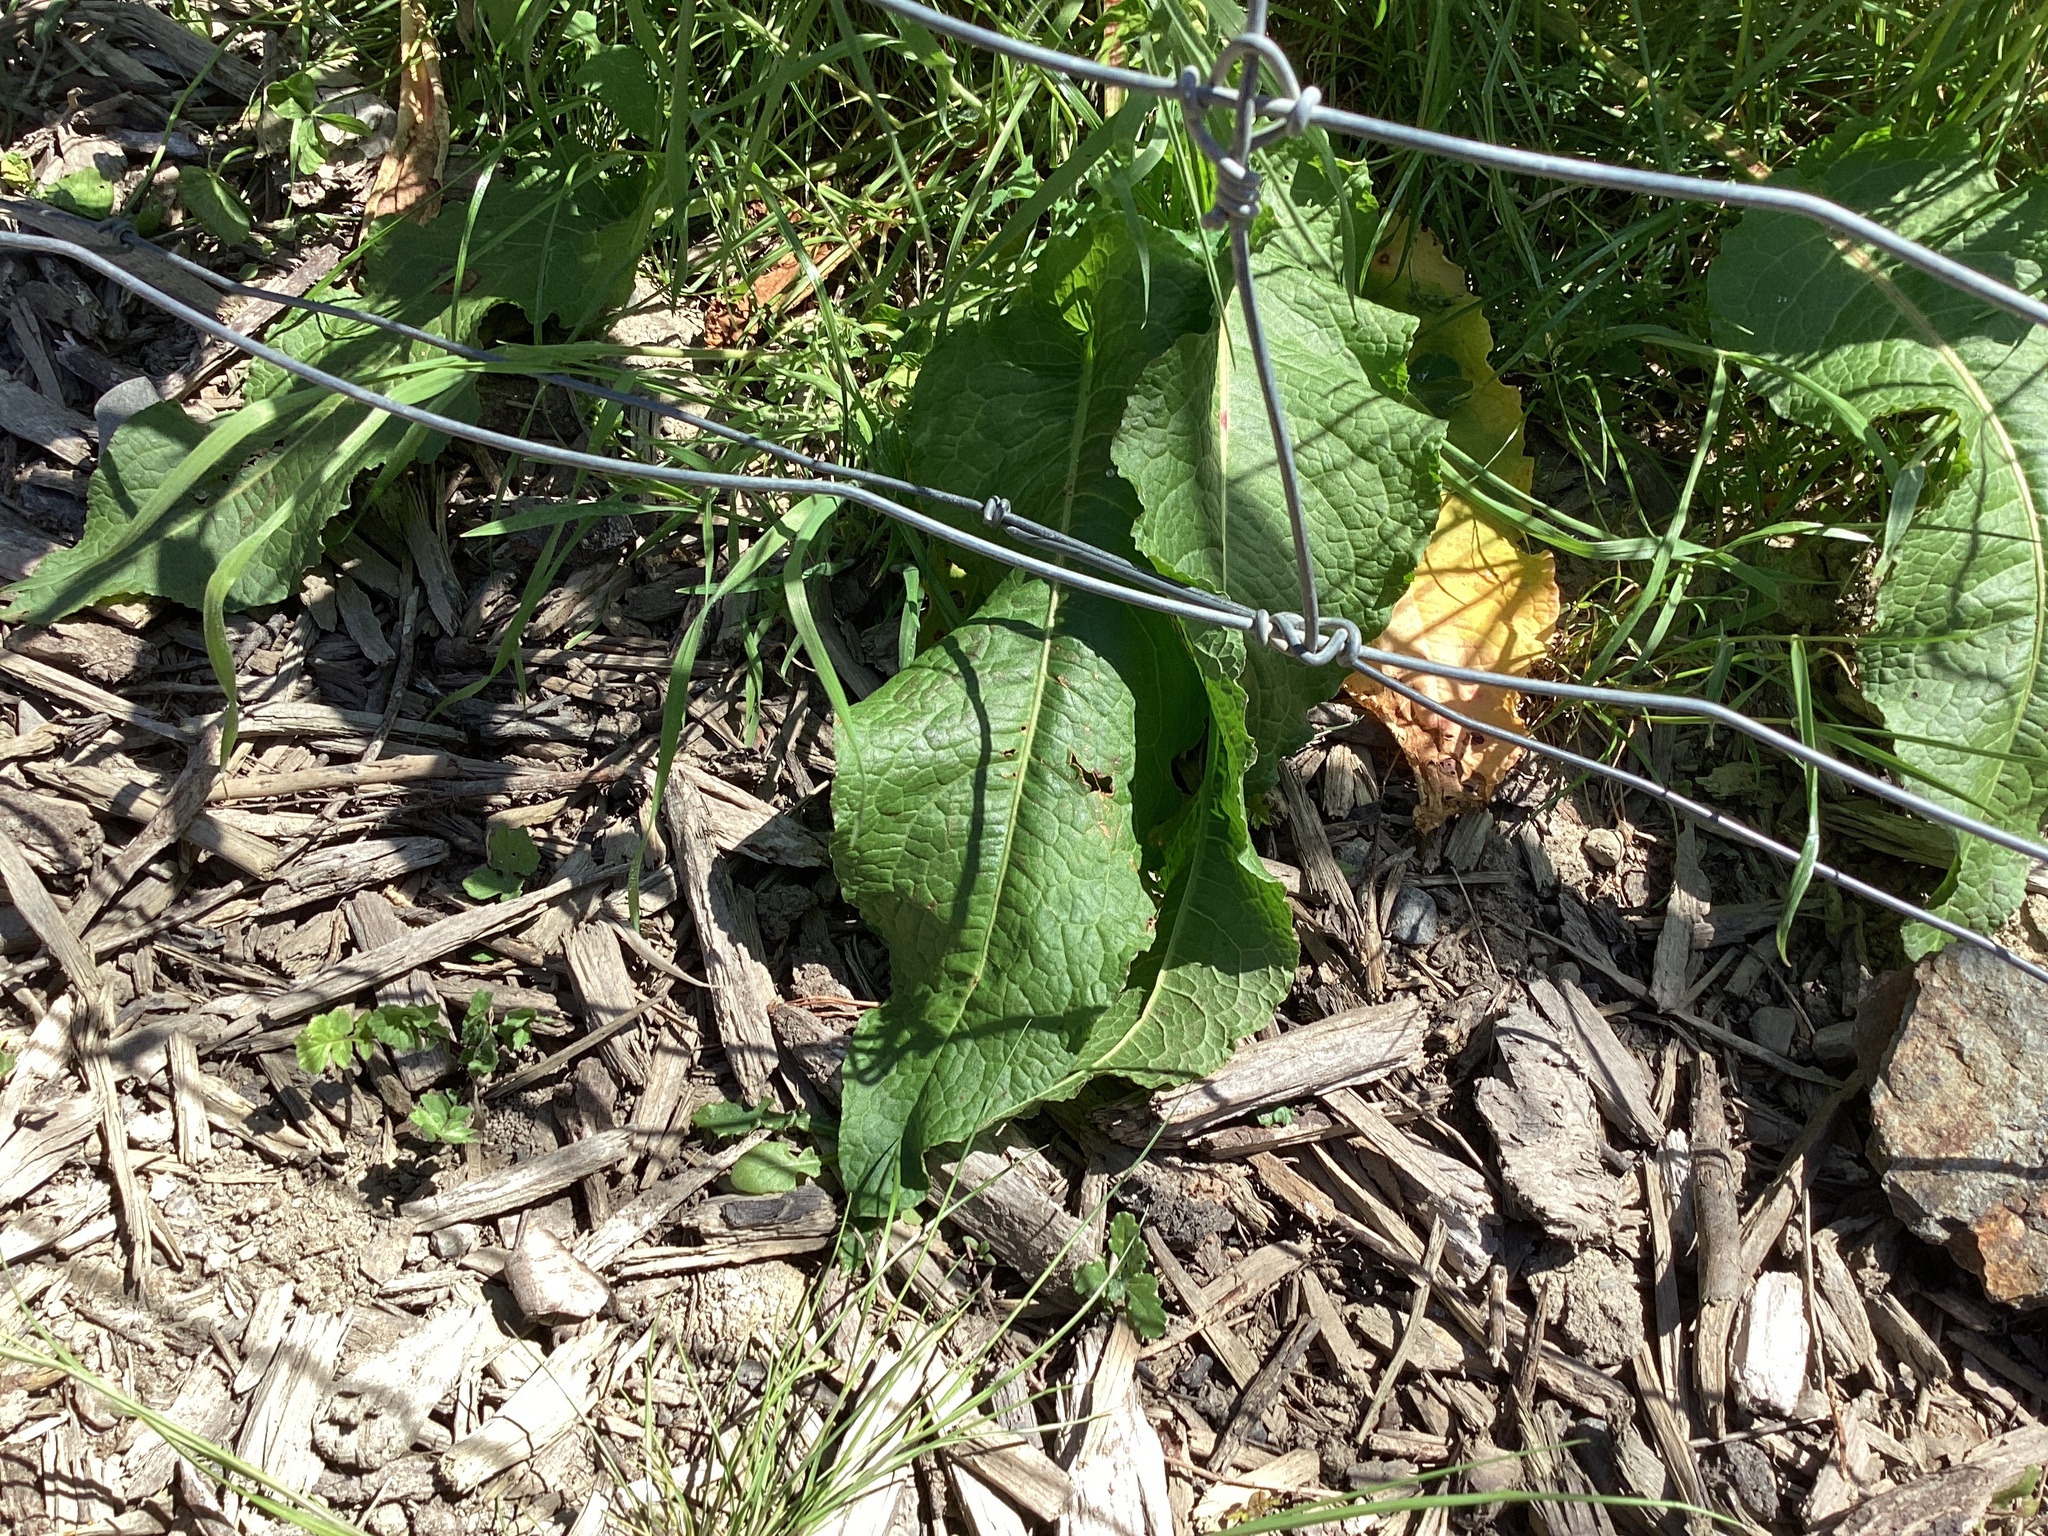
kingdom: Plantae
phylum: Tracheophyta
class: Magnoliopsida
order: Caryophyllales
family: Polygonaceae
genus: Rumex
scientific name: Rumex obtusifolius
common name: Bitter dock
